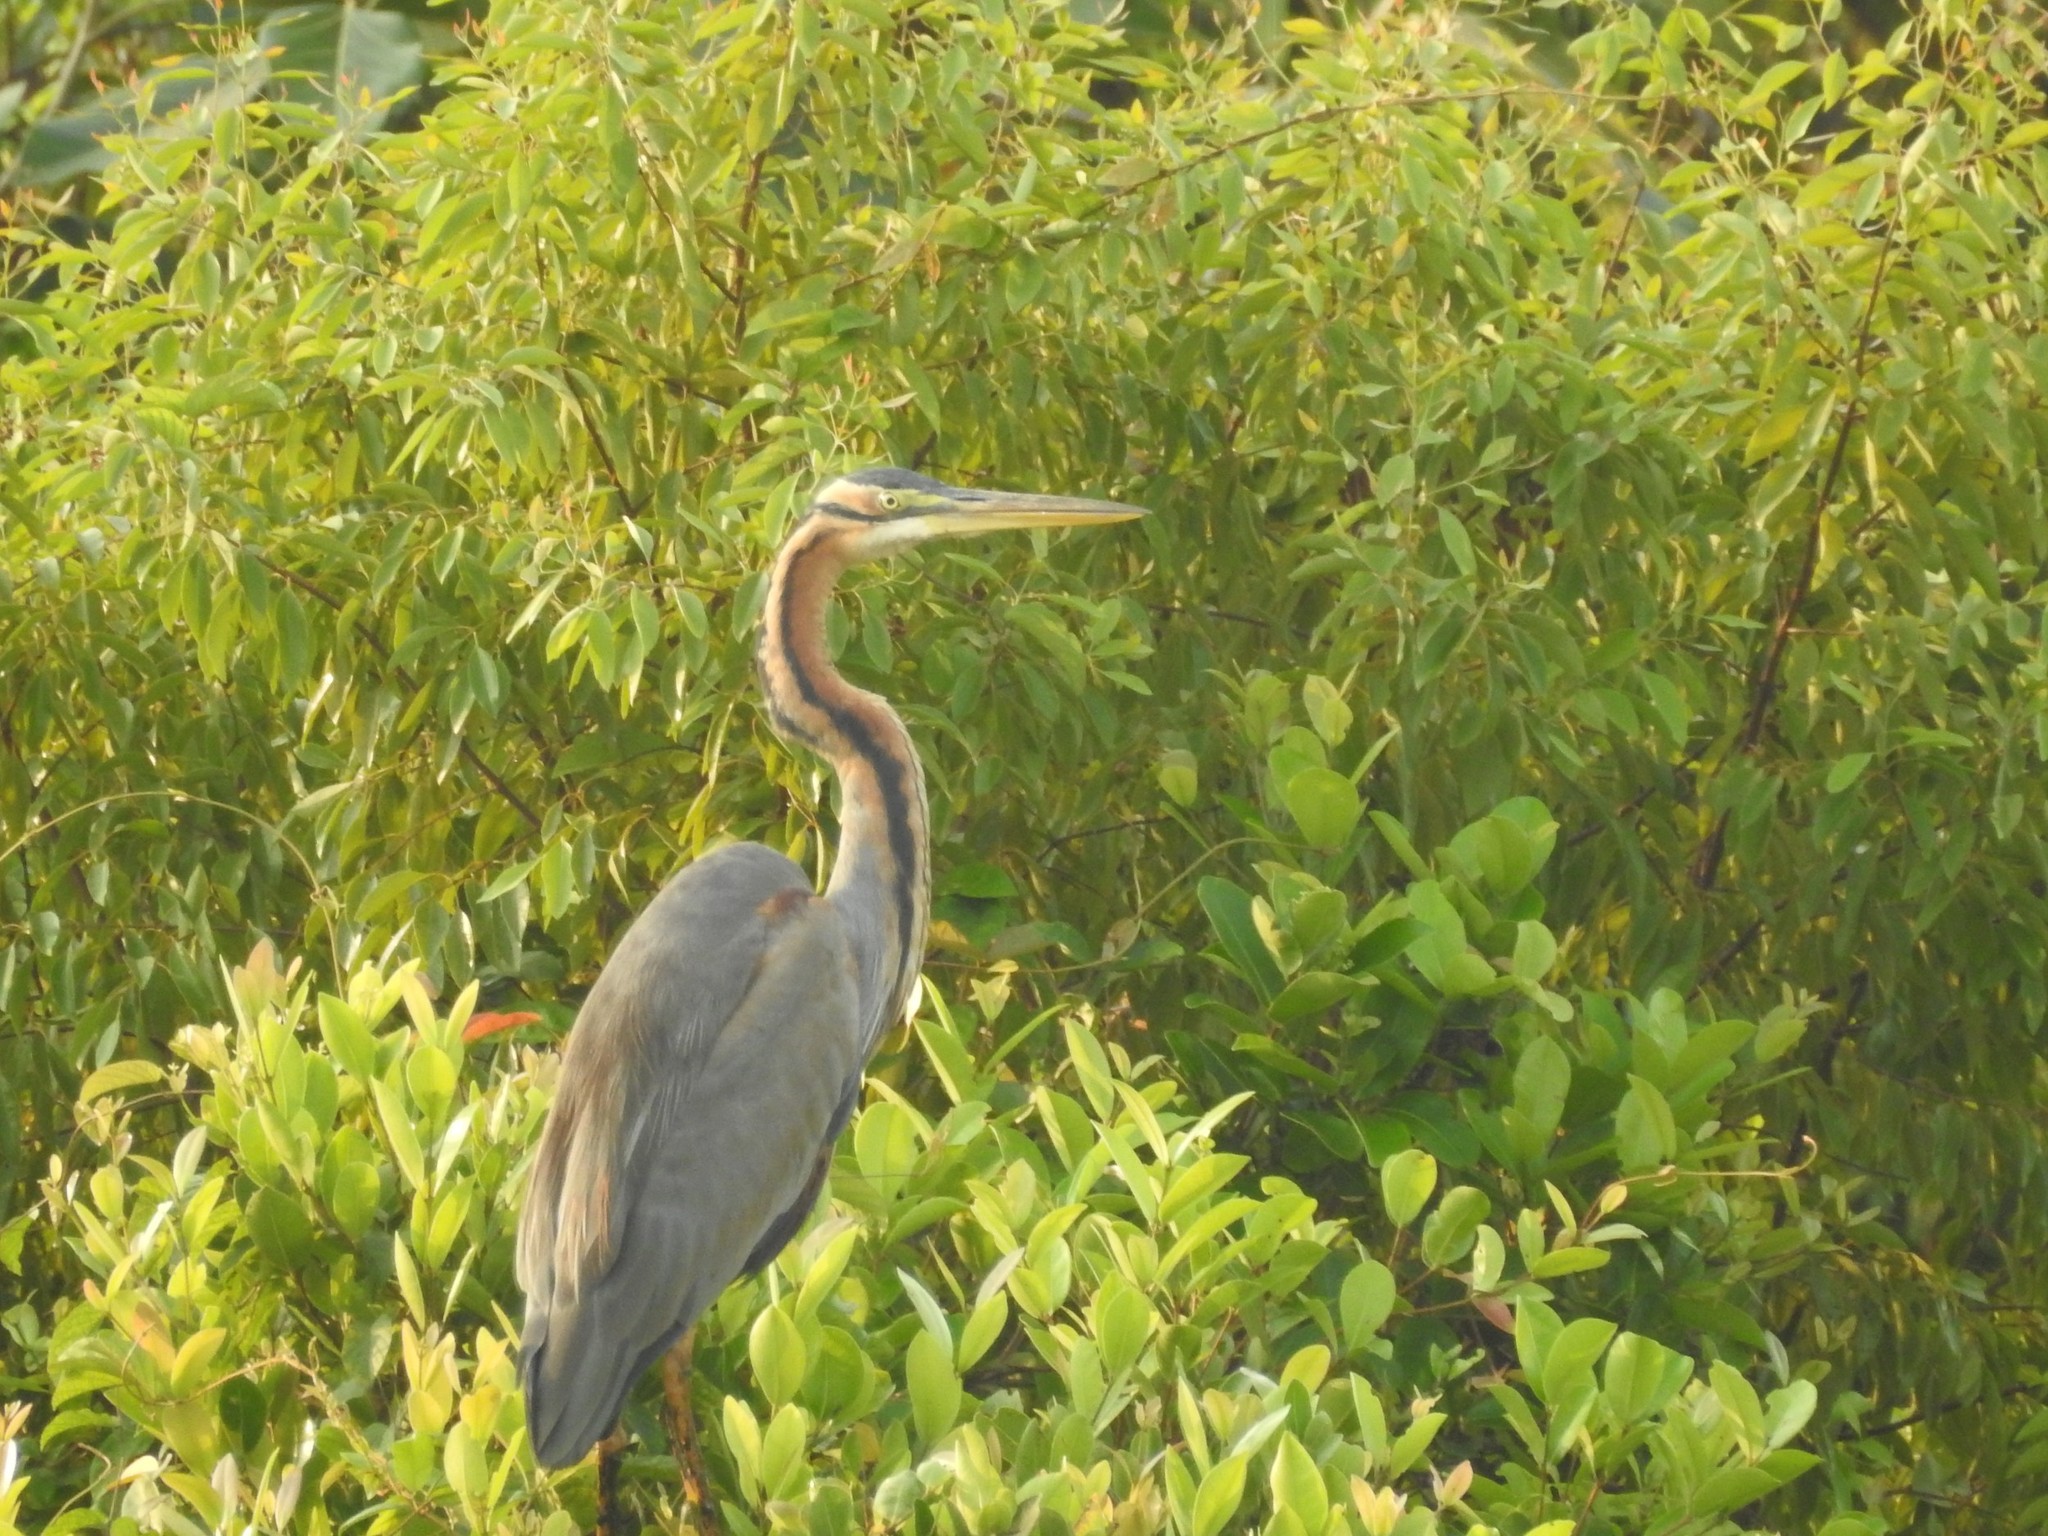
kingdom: Animalia
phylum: Chordata
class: Aves
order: Pelecaniformes
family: Ardeidae
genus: Ardea
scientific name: Ardea purpurea
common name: Purple heron
